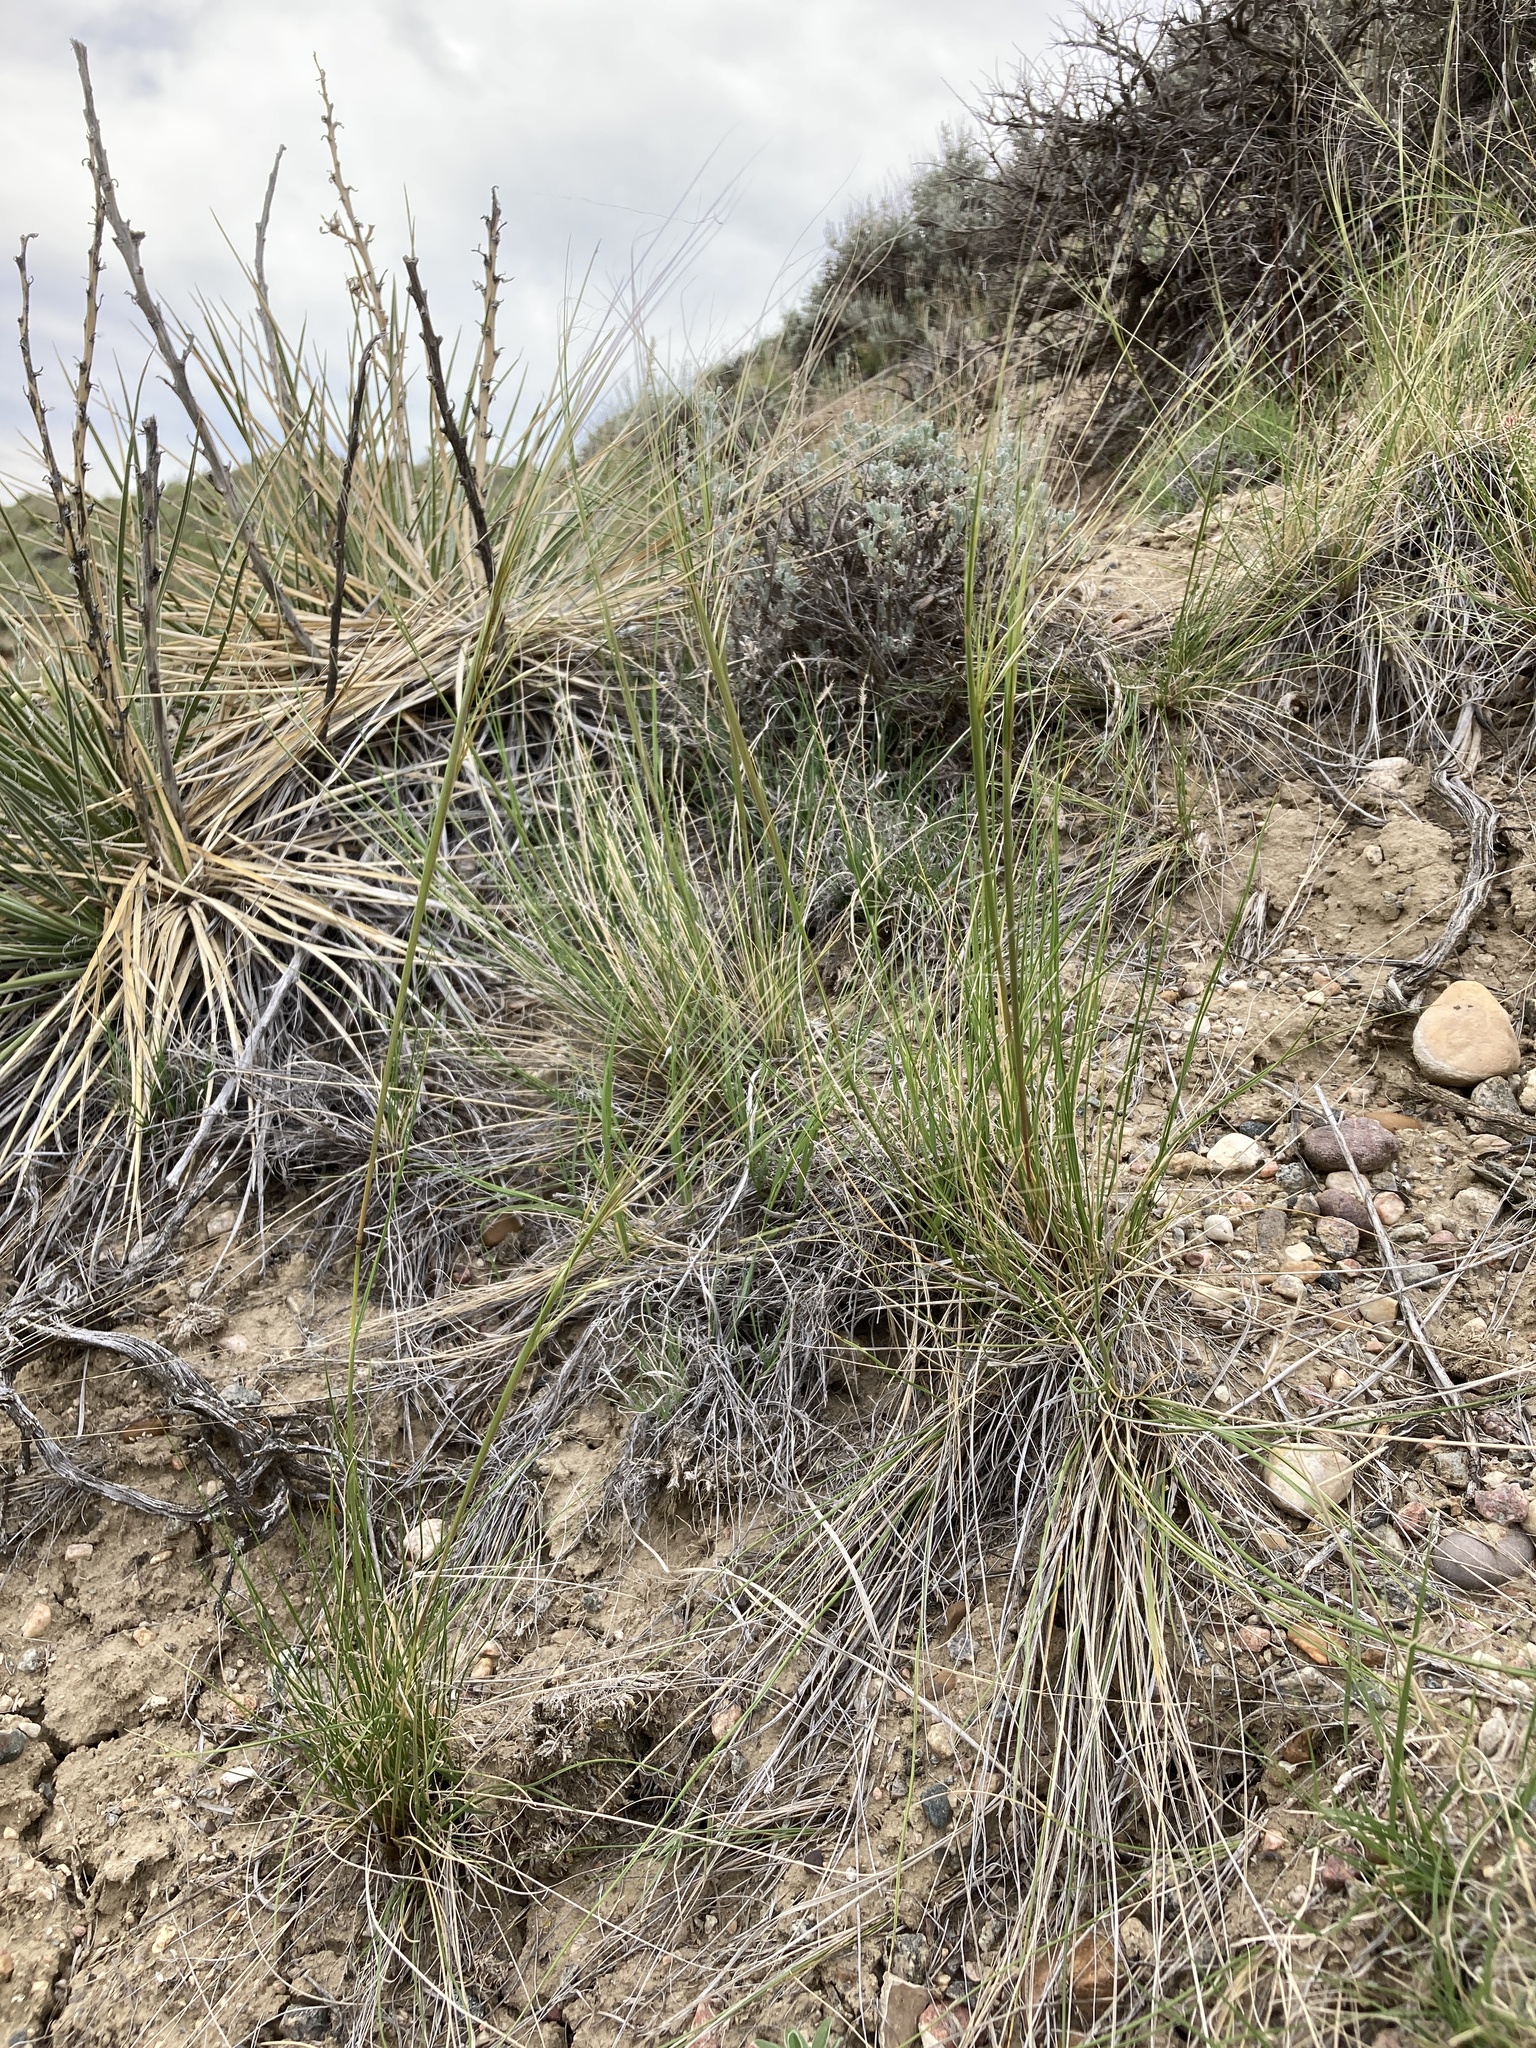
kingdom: Plantae
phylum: Tracheophyta
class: Liliopsida
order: Poales
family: Poaceae
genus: Hesperostipa
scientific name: Hesperostipa comata
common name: Needle-and-thread grass
